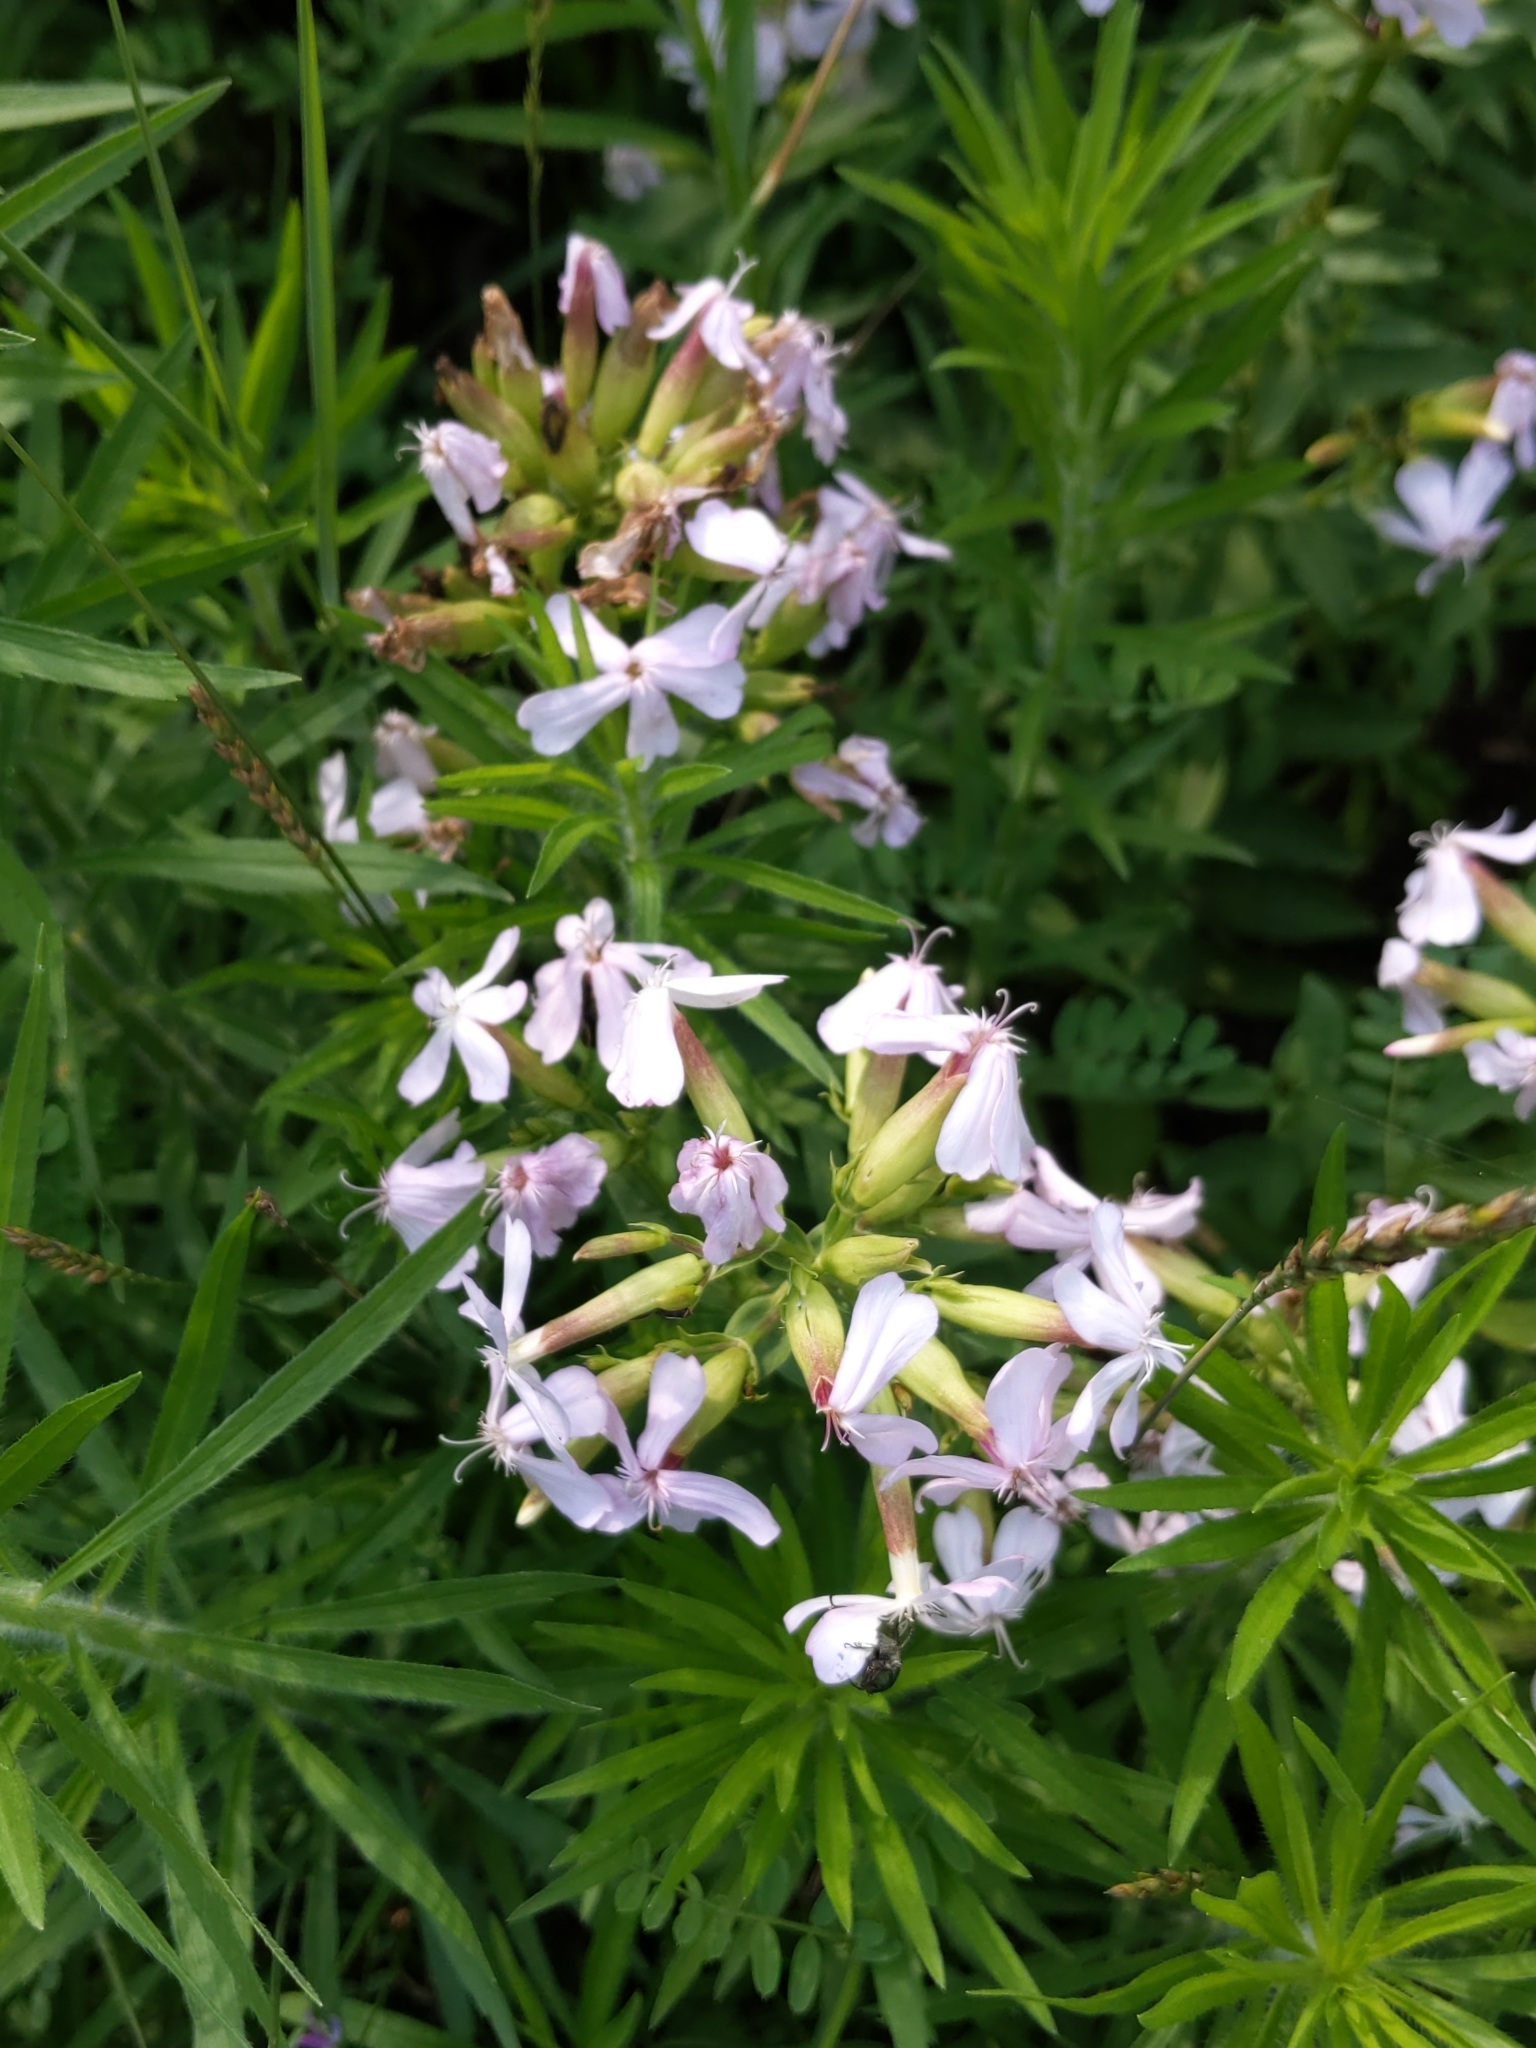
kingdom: Plantae
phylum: Tracheophyta
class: Magnoliopsida
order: Caryophyllales
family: Caryophyllaceae
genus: Saponaria
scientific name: Saponaria officinalis
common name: Soapwort
